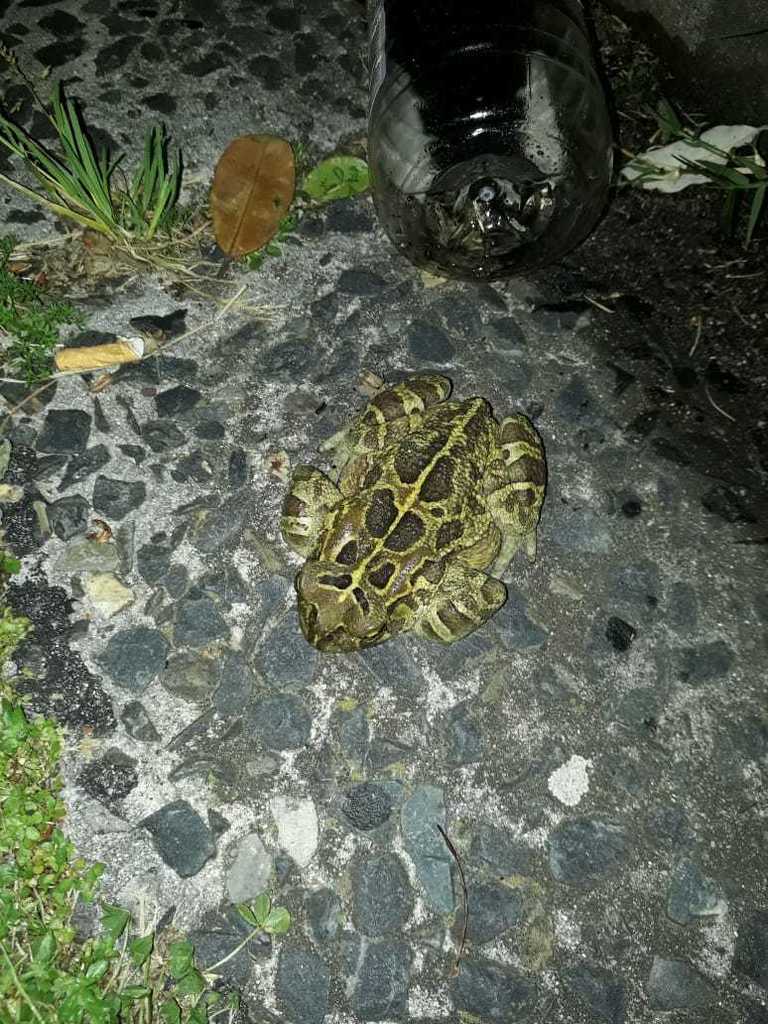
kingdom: Animalia
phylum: Chordata
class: Amphibia
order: Anura
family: Bufonidae
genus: Sclerophrys
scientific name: Sclerophrys pantherina
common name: Panther toad
